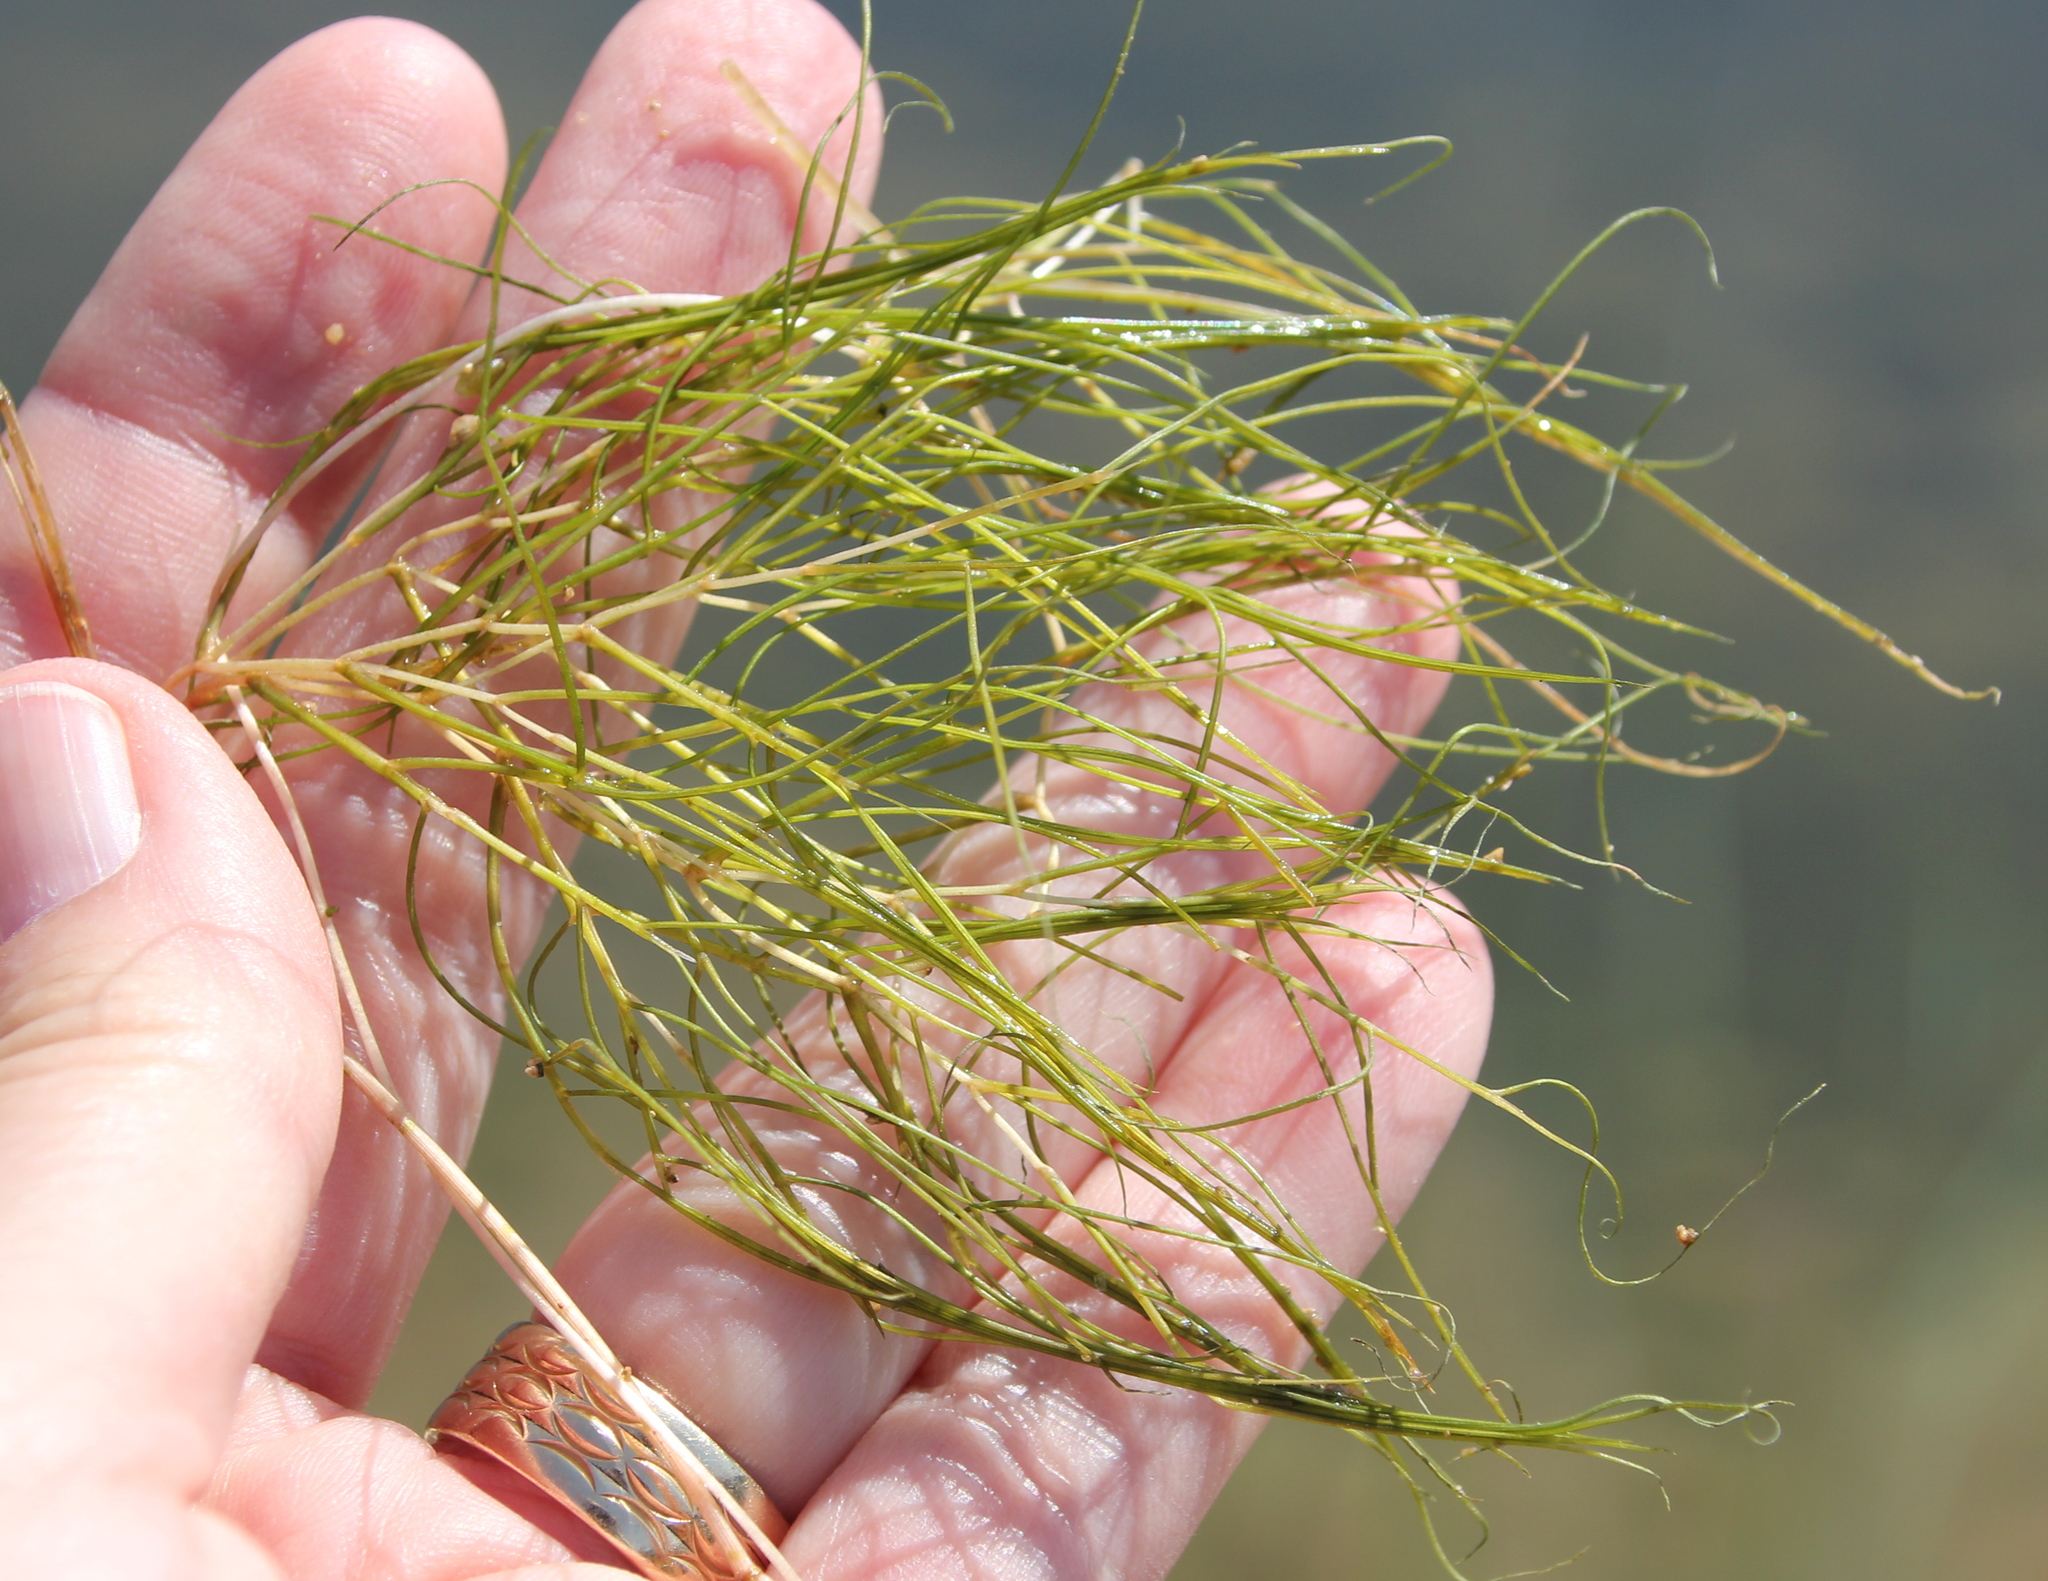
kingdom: Plantae
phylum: Tracheophyta
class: Liliopsida
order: Alismatales
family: Potamogetonaceae
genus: Stuckenia
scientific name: Stuckenia pectinata
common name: Sago pondweed
